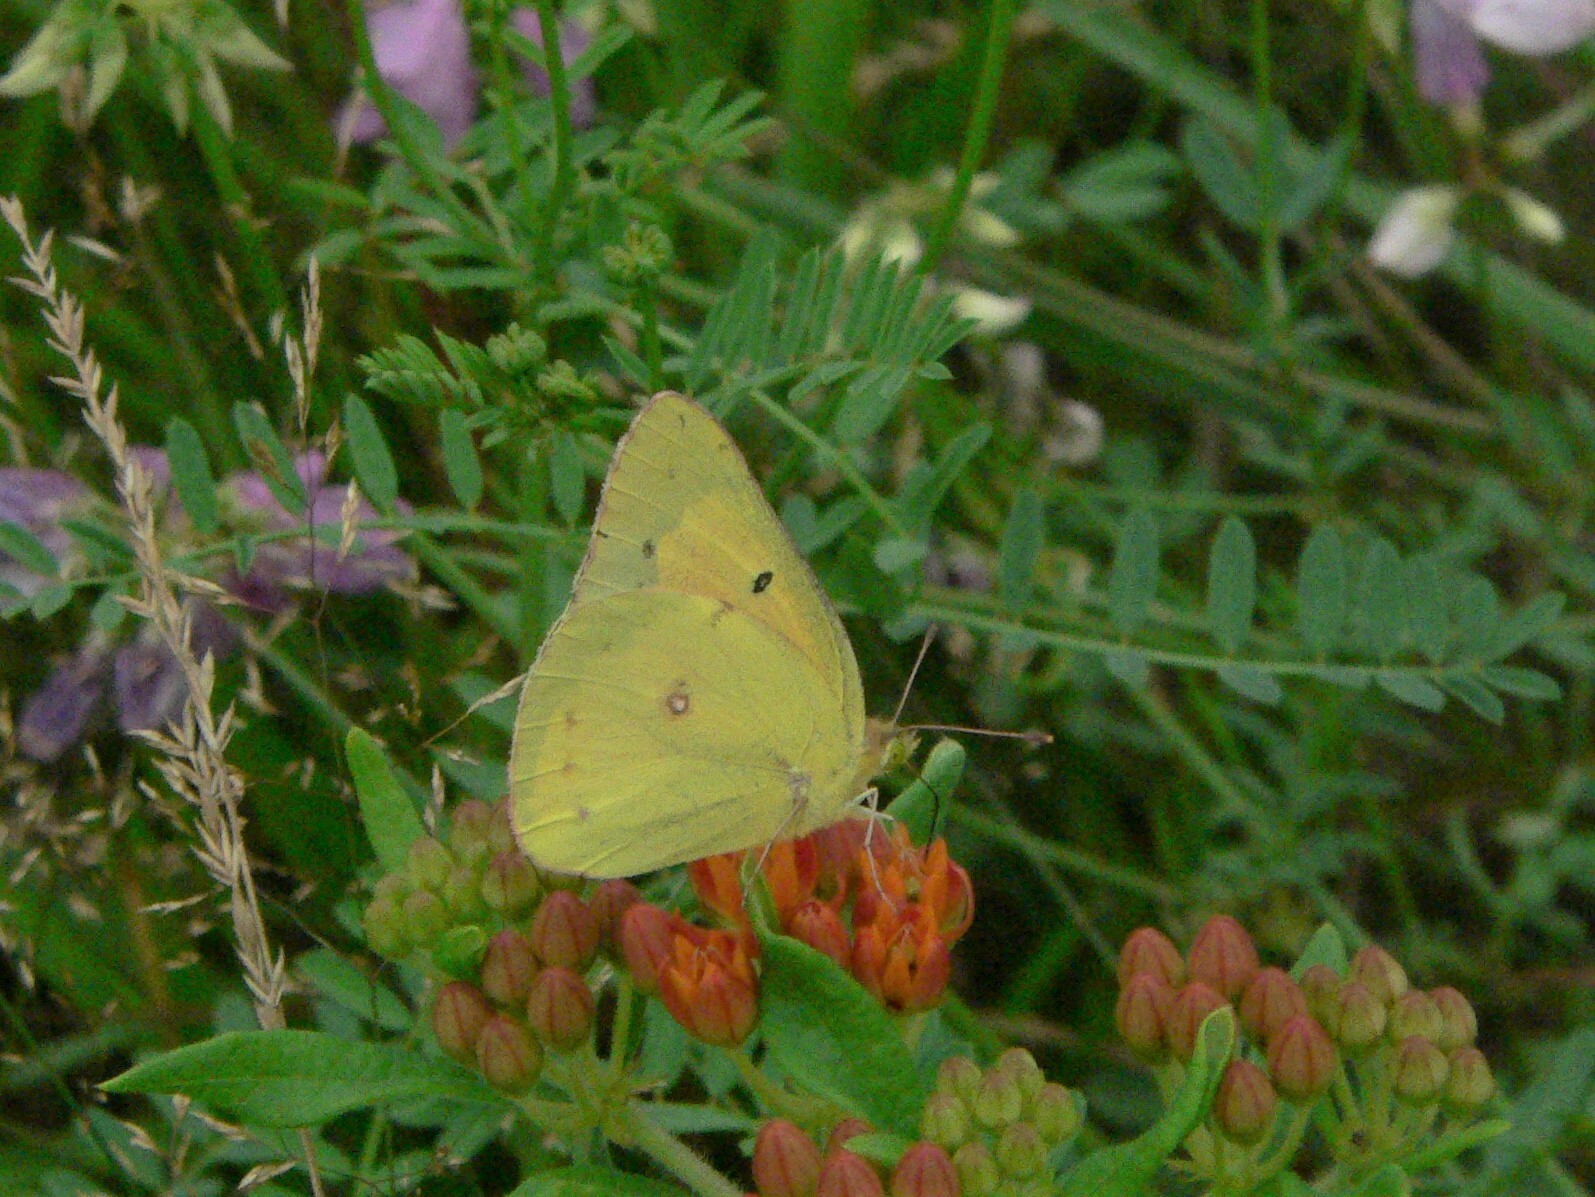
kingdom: Animalia
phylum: Arthropoda
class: Insecta
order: Lepidoptera
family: Pieridae
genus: Colias
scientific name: Colias eurytheme
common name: Alfalfa butterfly
